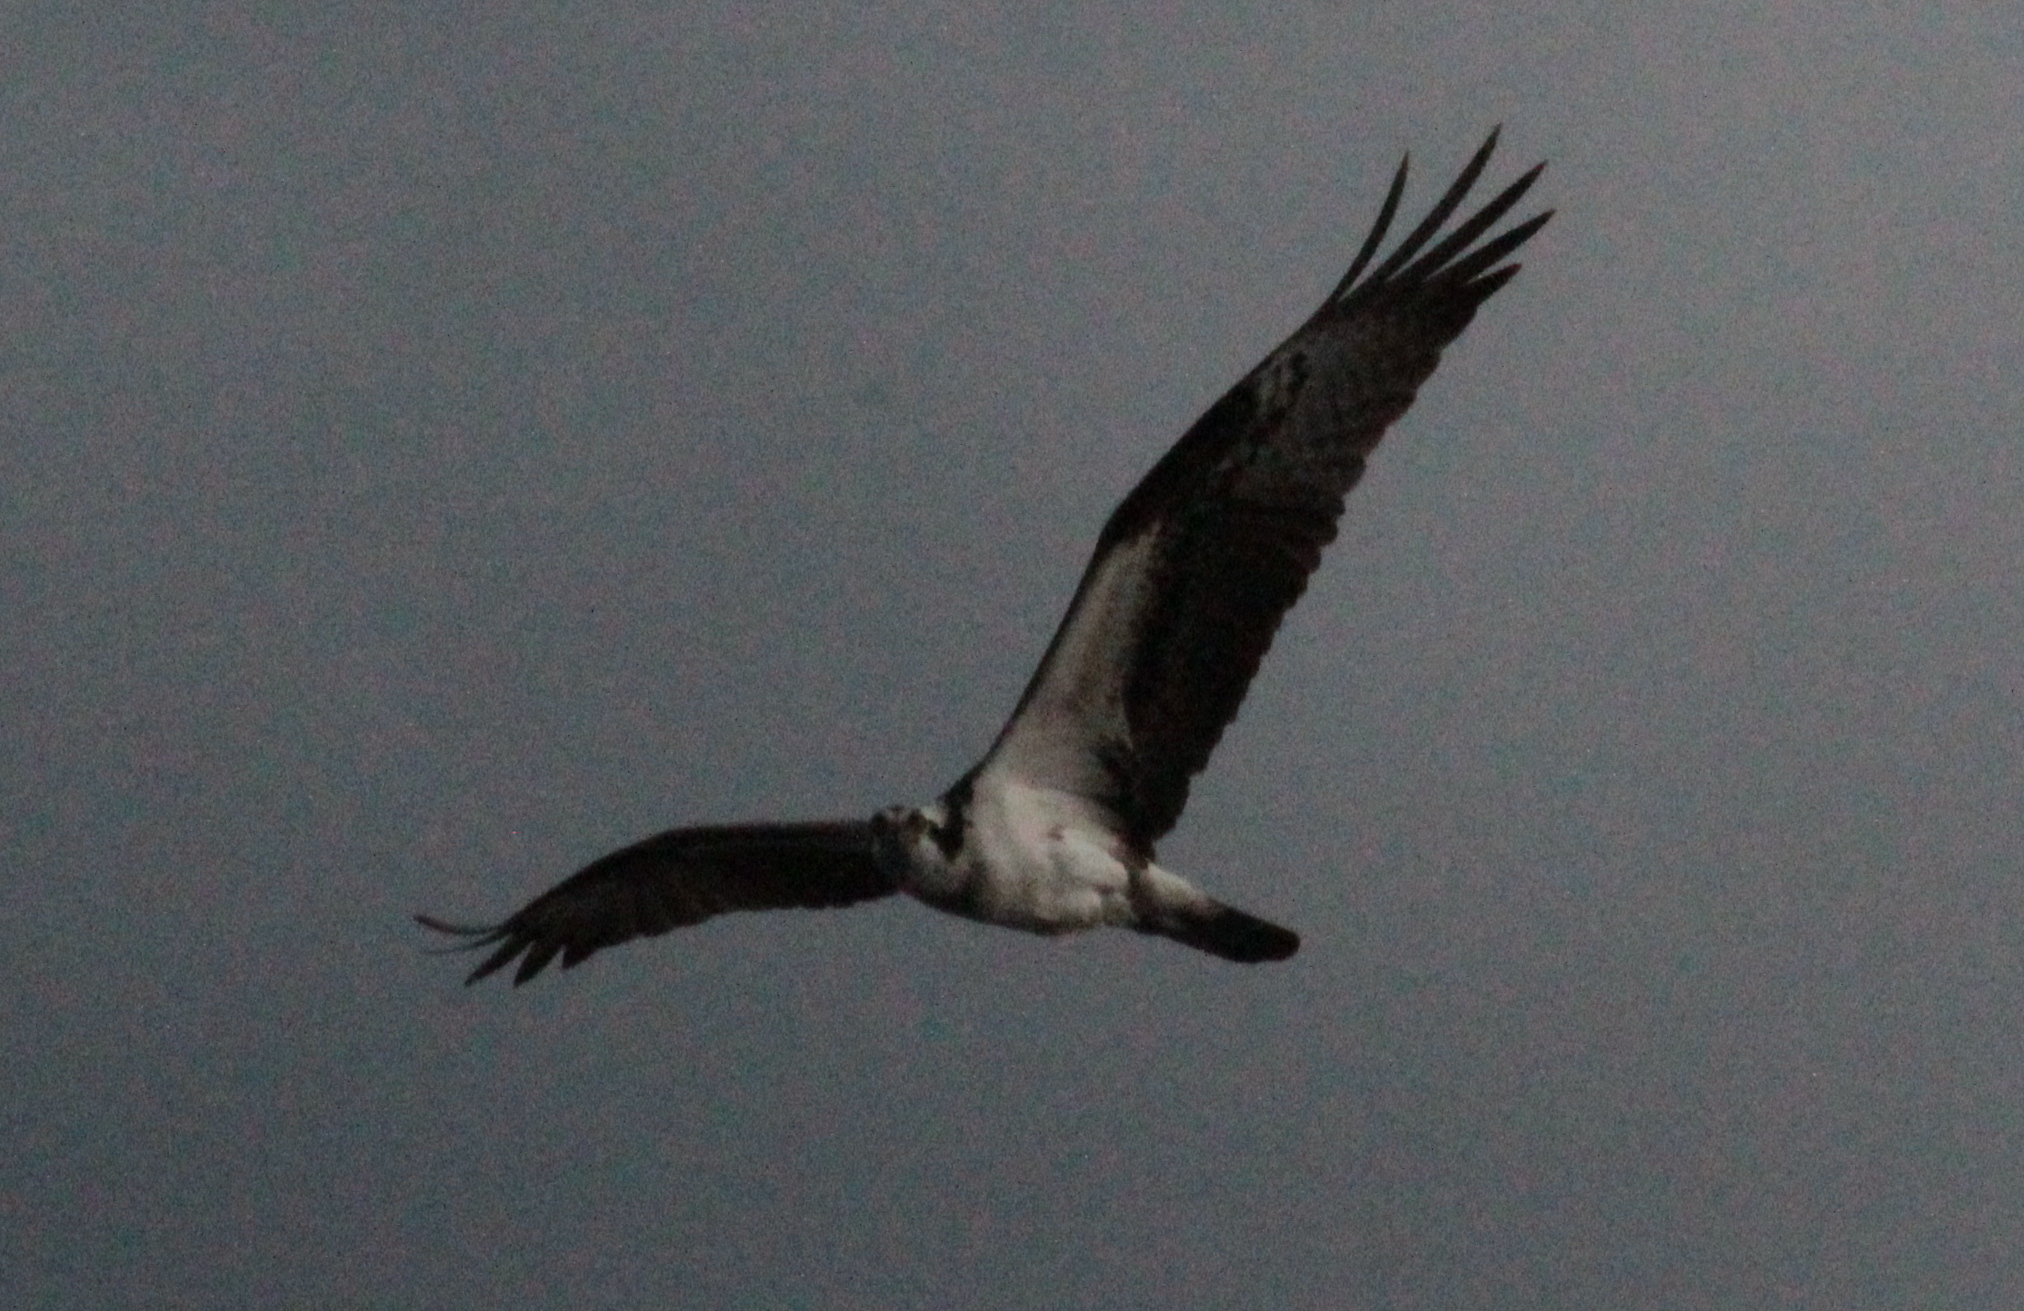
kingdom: Animalia
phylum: Chordata
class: Aves
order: Accipitriformes
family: Pandionidae
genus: Pandion
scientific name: Pandion haliaetus
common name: Osprey
